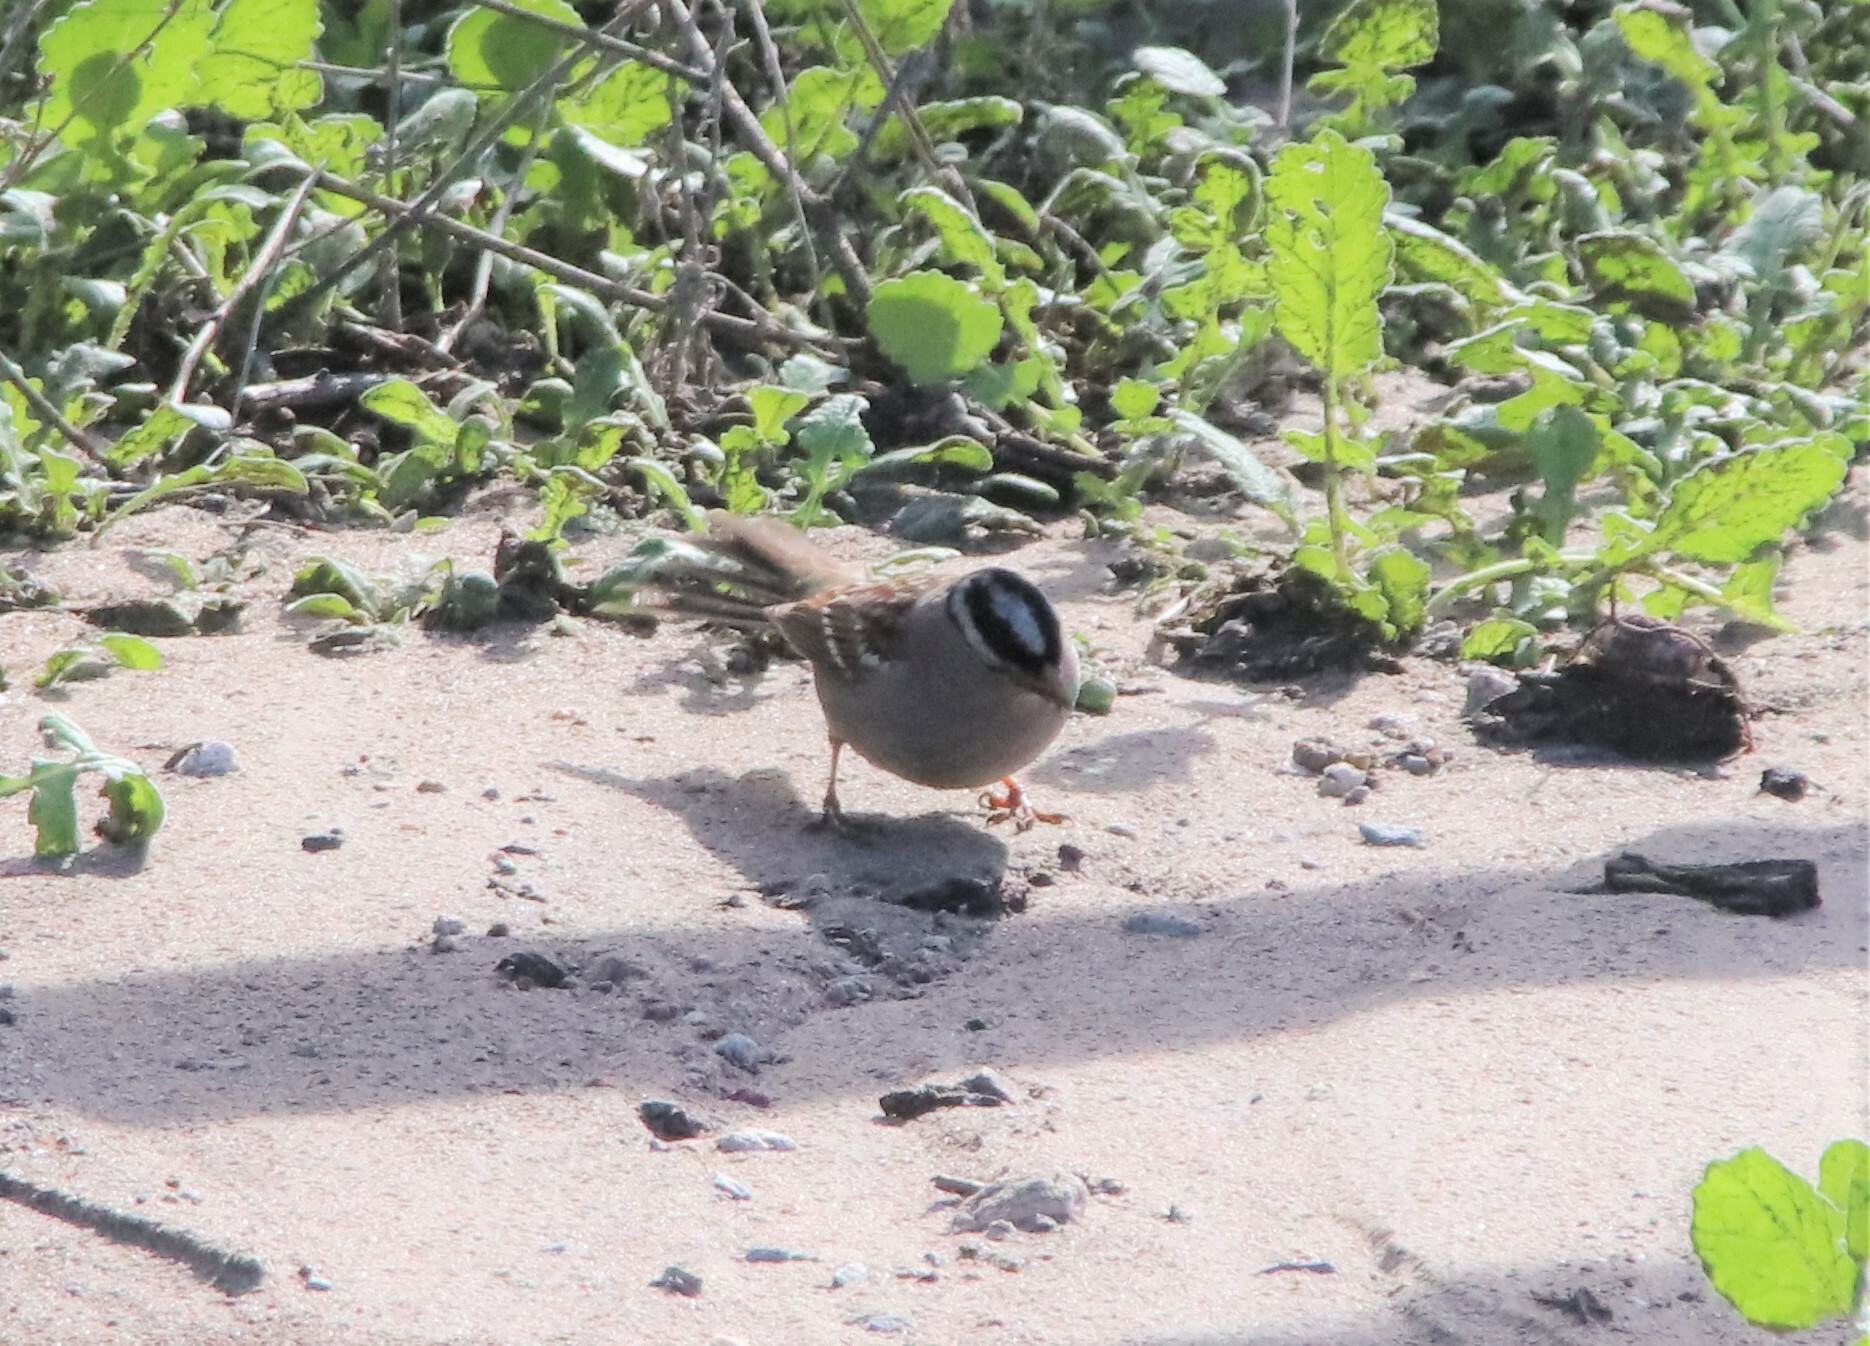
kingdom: Animalia
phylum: Chordata
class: Aves
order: Passeriformes
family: Passerellidae
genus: Zonotrichia
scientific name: Zonotrichia leucophrys
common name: White-crowned sparrow
